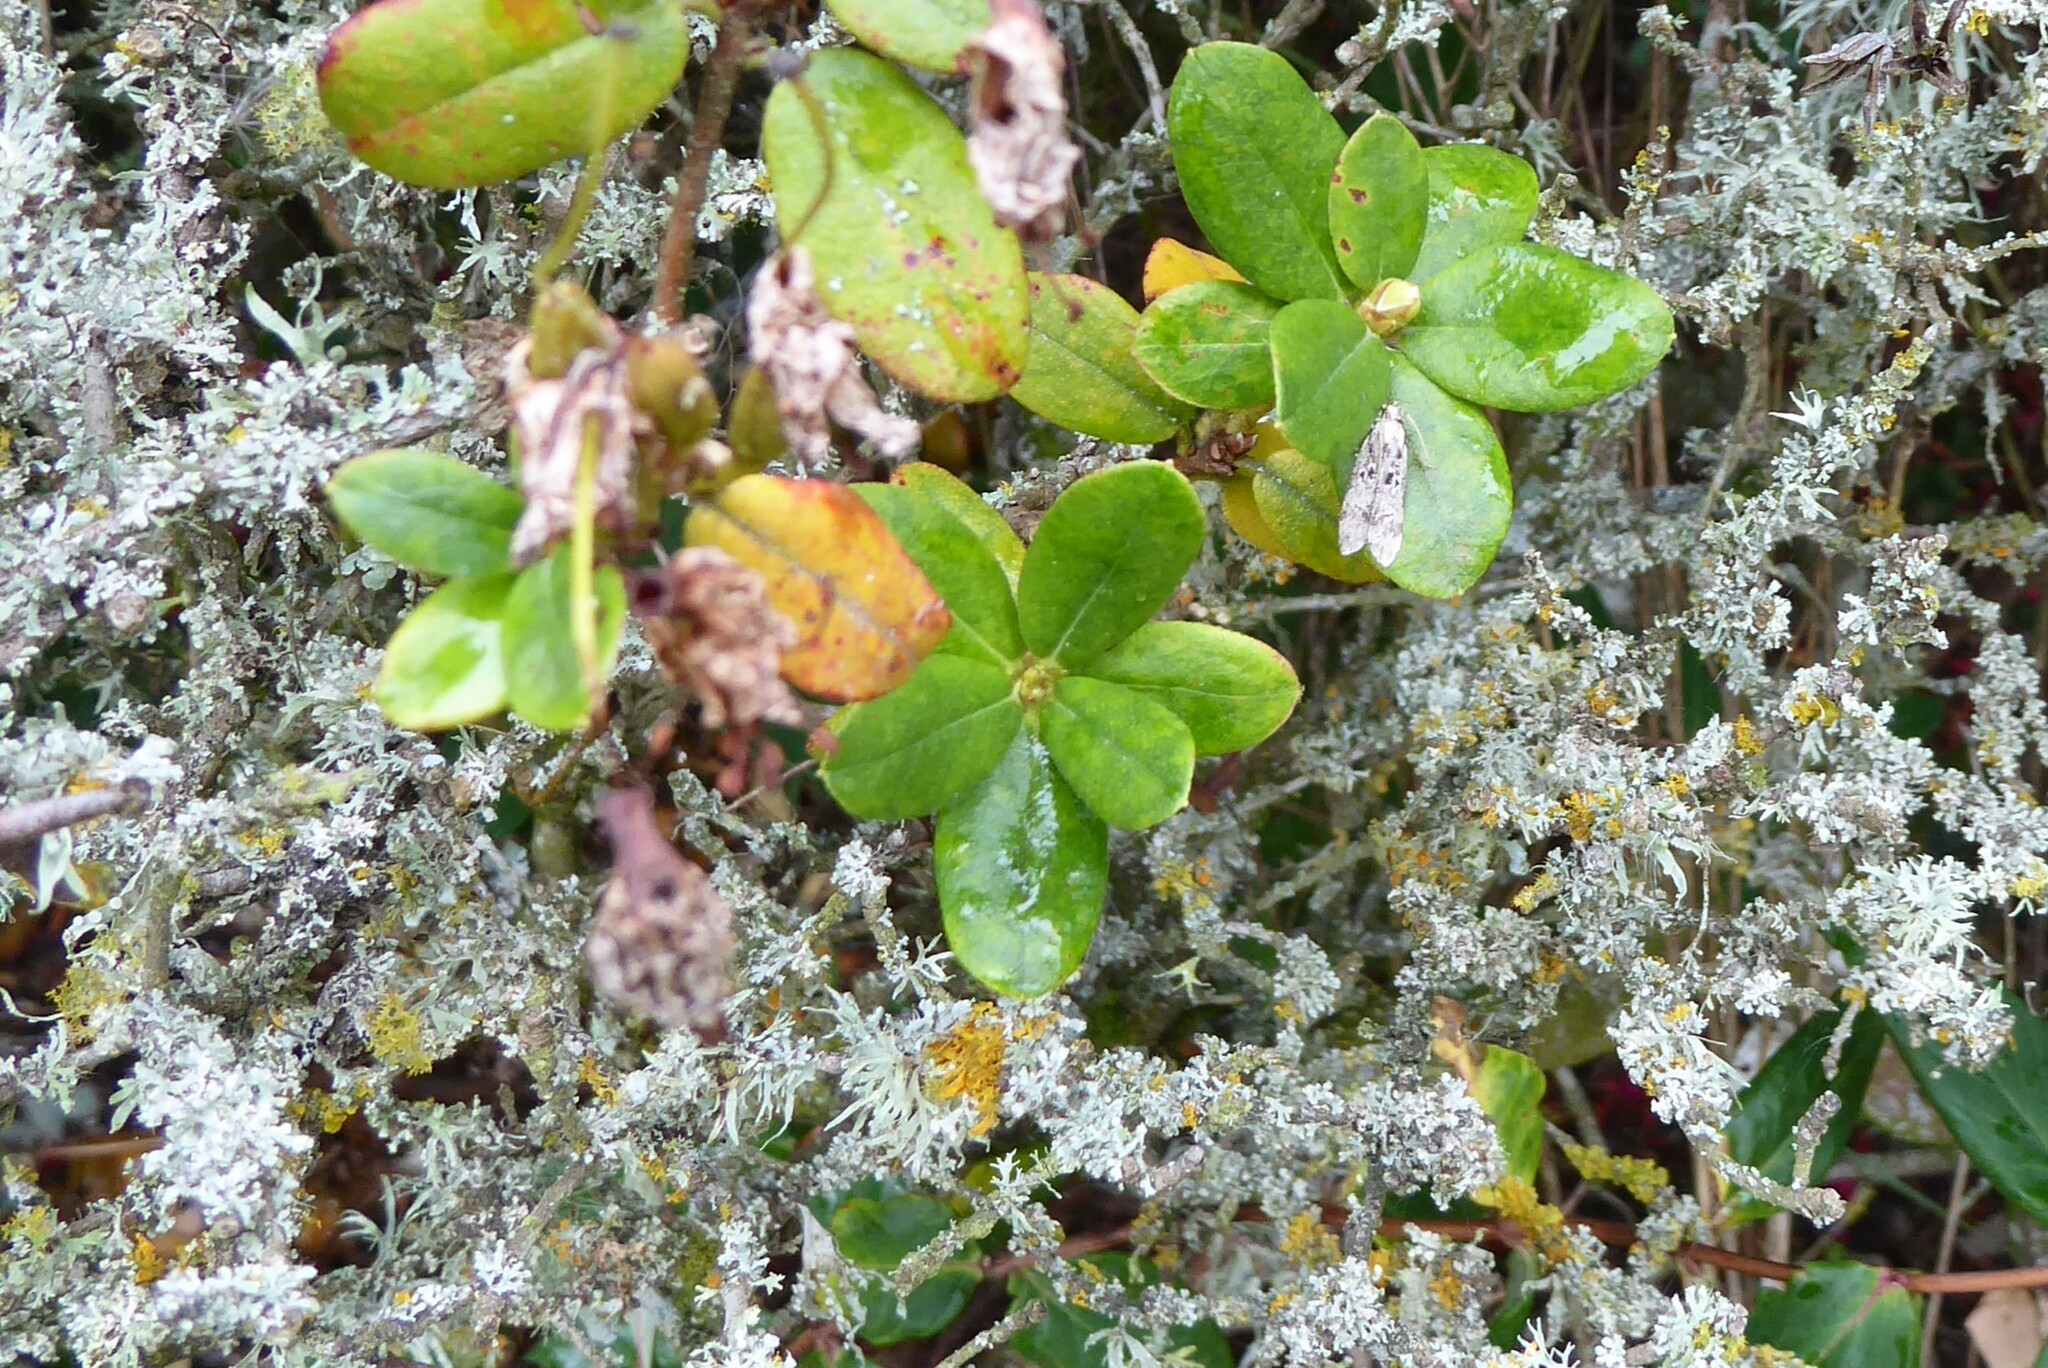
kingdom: Animalia
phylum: Arthropoda
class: Insecta
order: Lepidoptera
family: Gelechiidae
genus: Anisoplaca
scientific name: Anisoplaca achyrota
